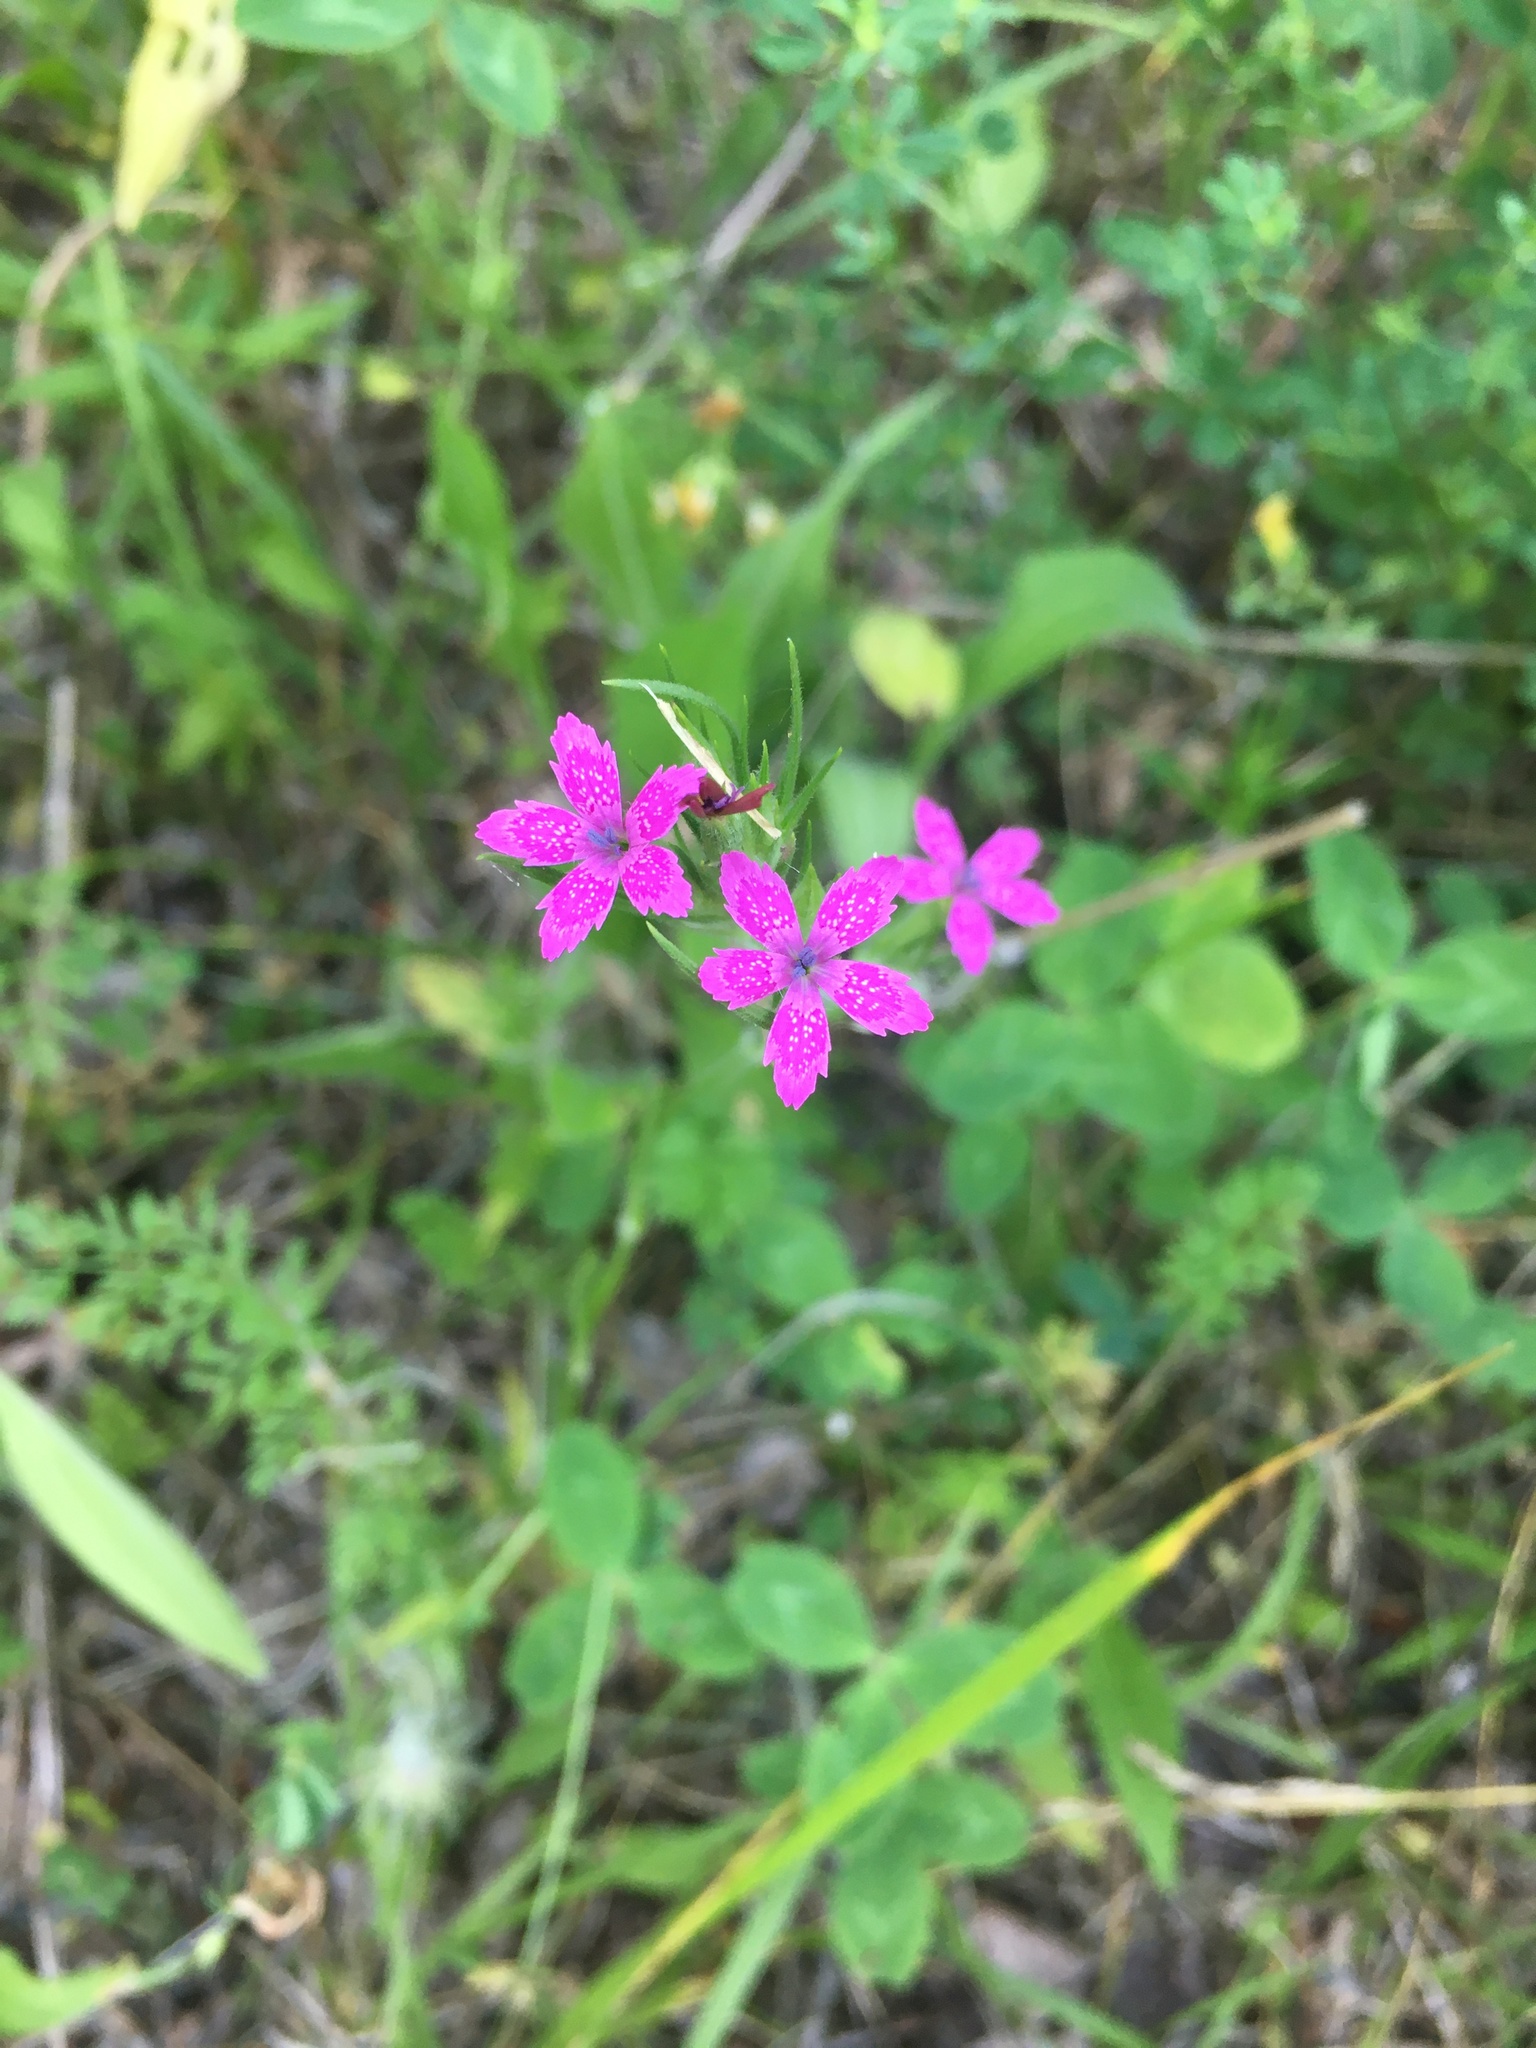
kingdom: Plantae
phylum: Tracheophyta
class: Magnoliopsida
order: Caryophyllales
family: Caryophyllaceae
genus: Dianthus
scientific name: Dianthus armeria
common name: Deptford pink
